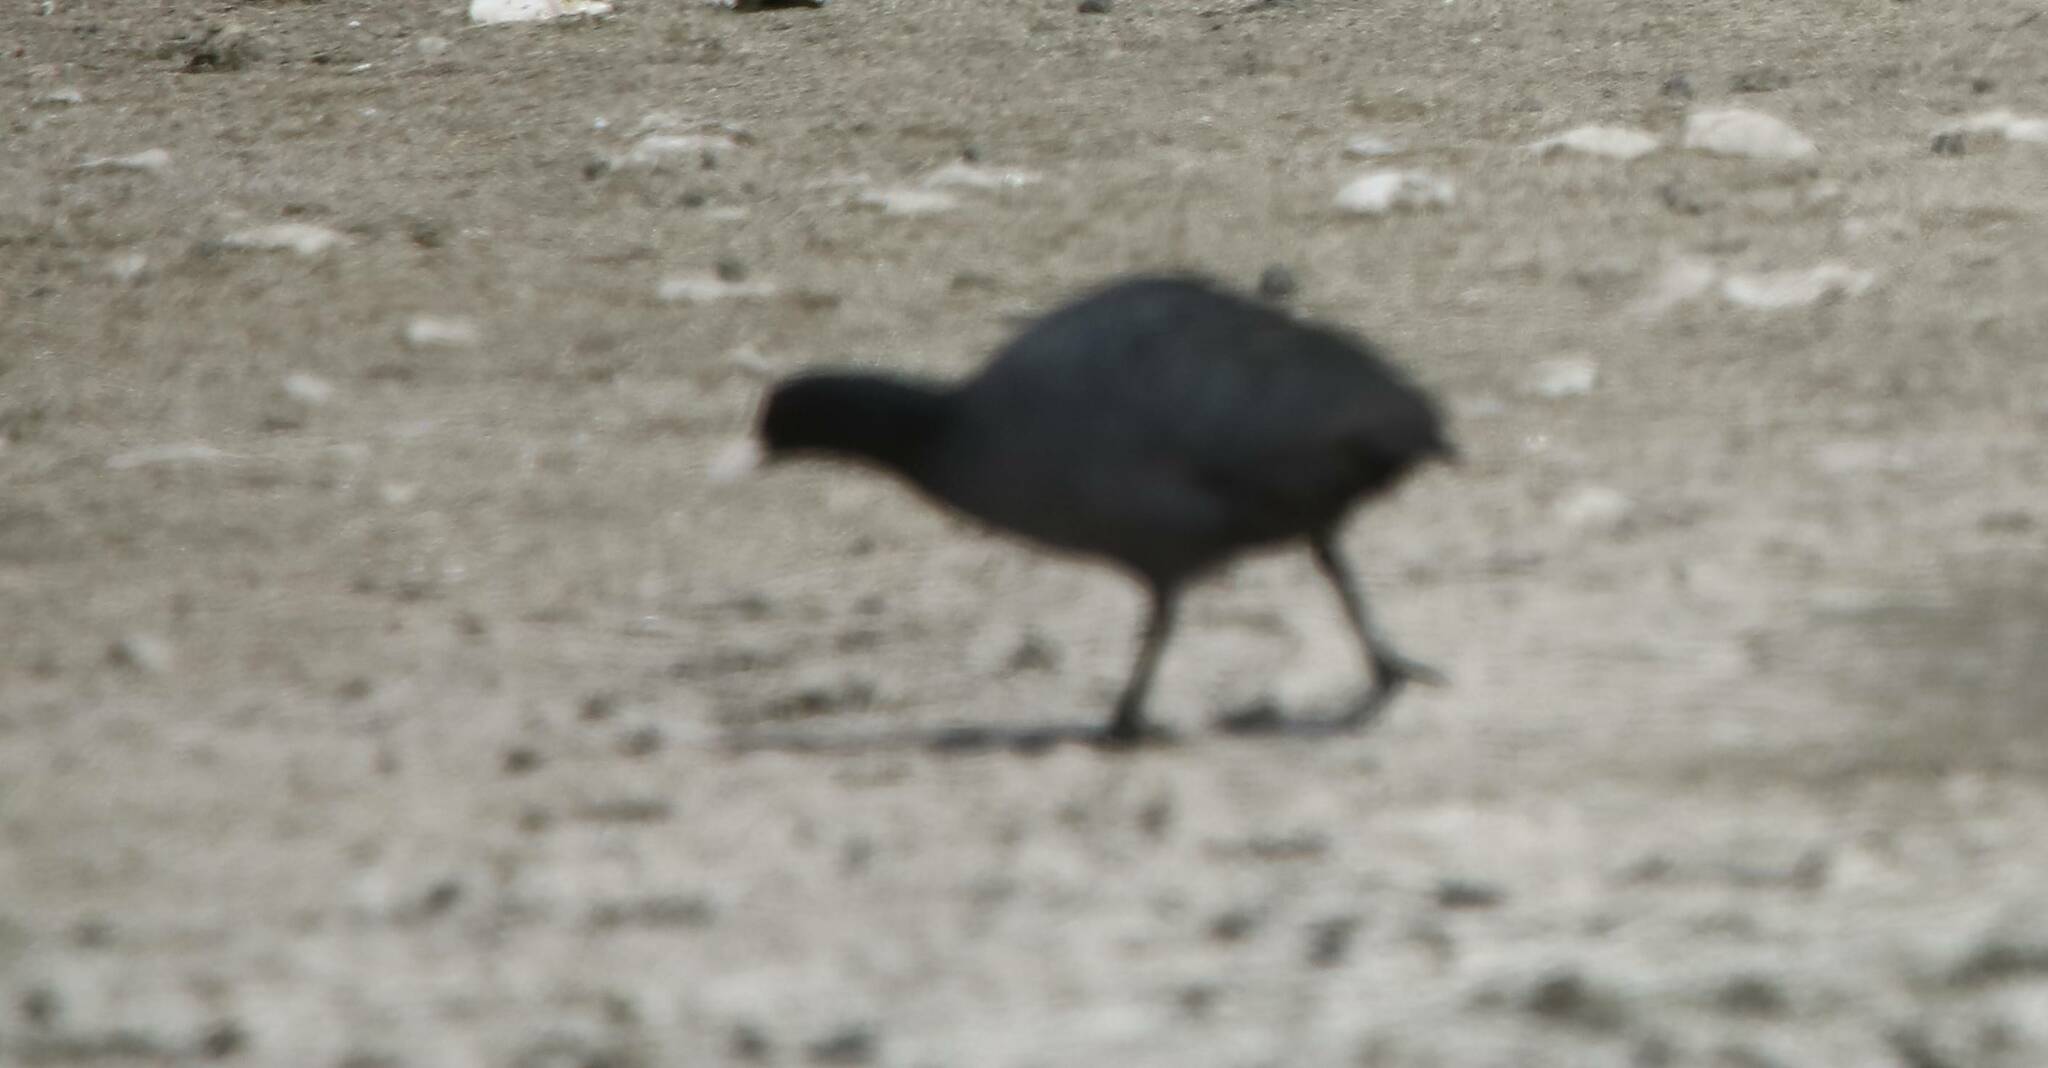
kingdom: Animalia
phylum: Chordata
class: Aves
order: Gruiformes
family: Rallidae
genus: Fulica
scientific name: Fulica atra
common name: Eurasian coot
